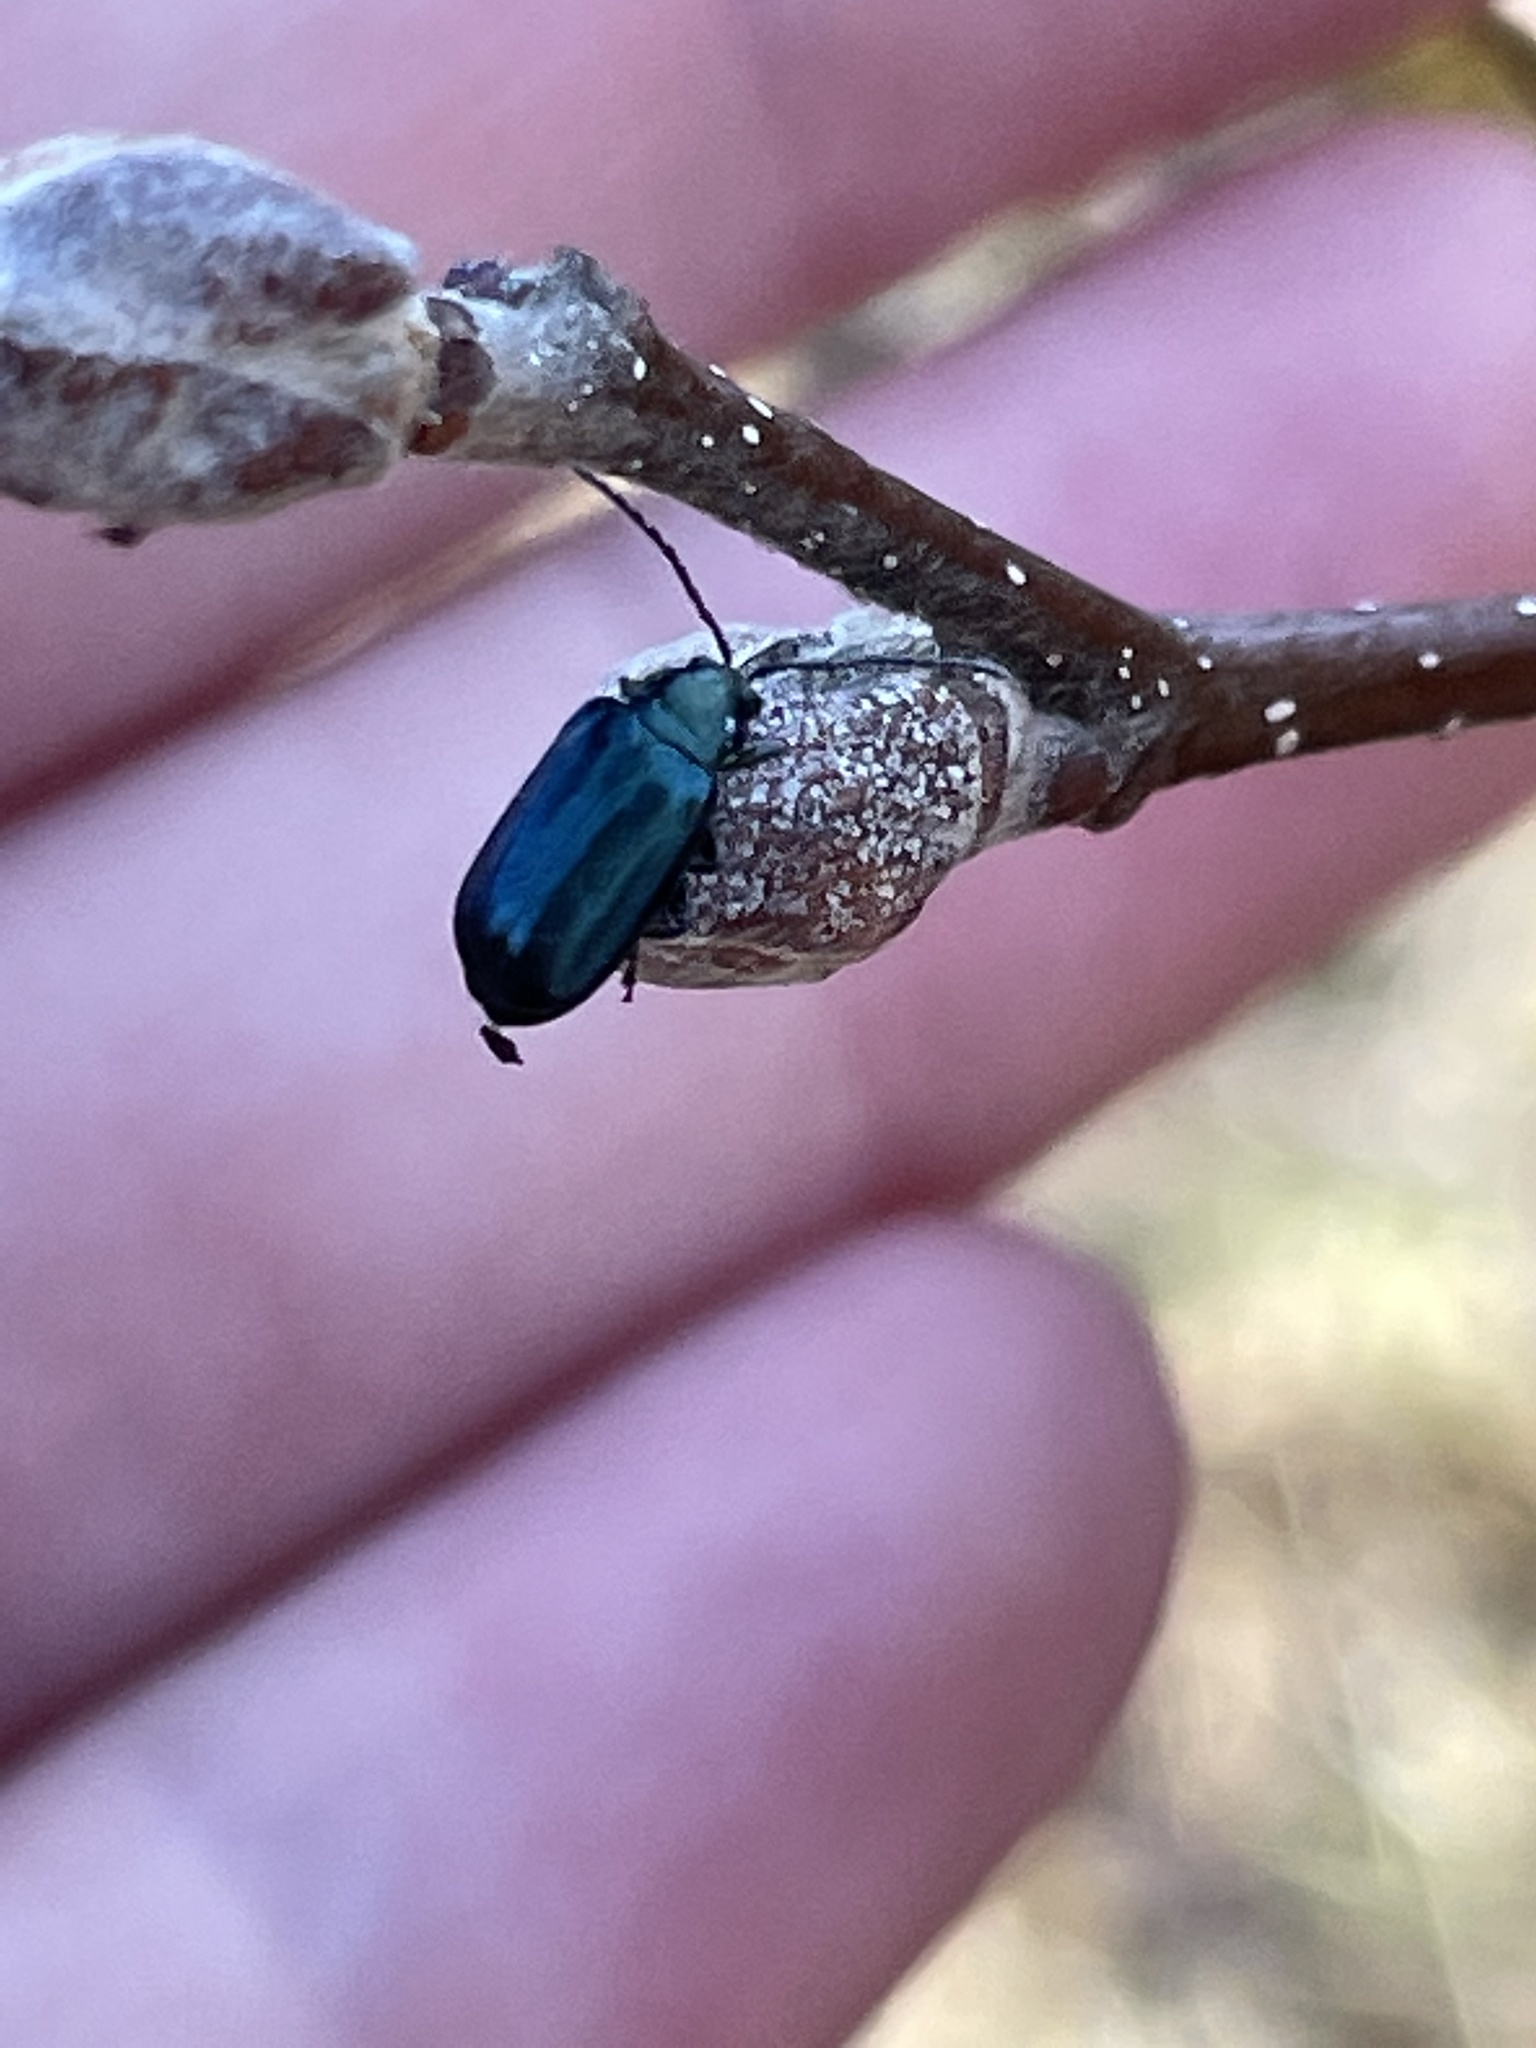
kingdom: Animalia
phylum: Arthropoda
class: Insecta
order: Coleoptera
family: Chrysomelidae
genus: Altica
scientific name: Altica ambiens
